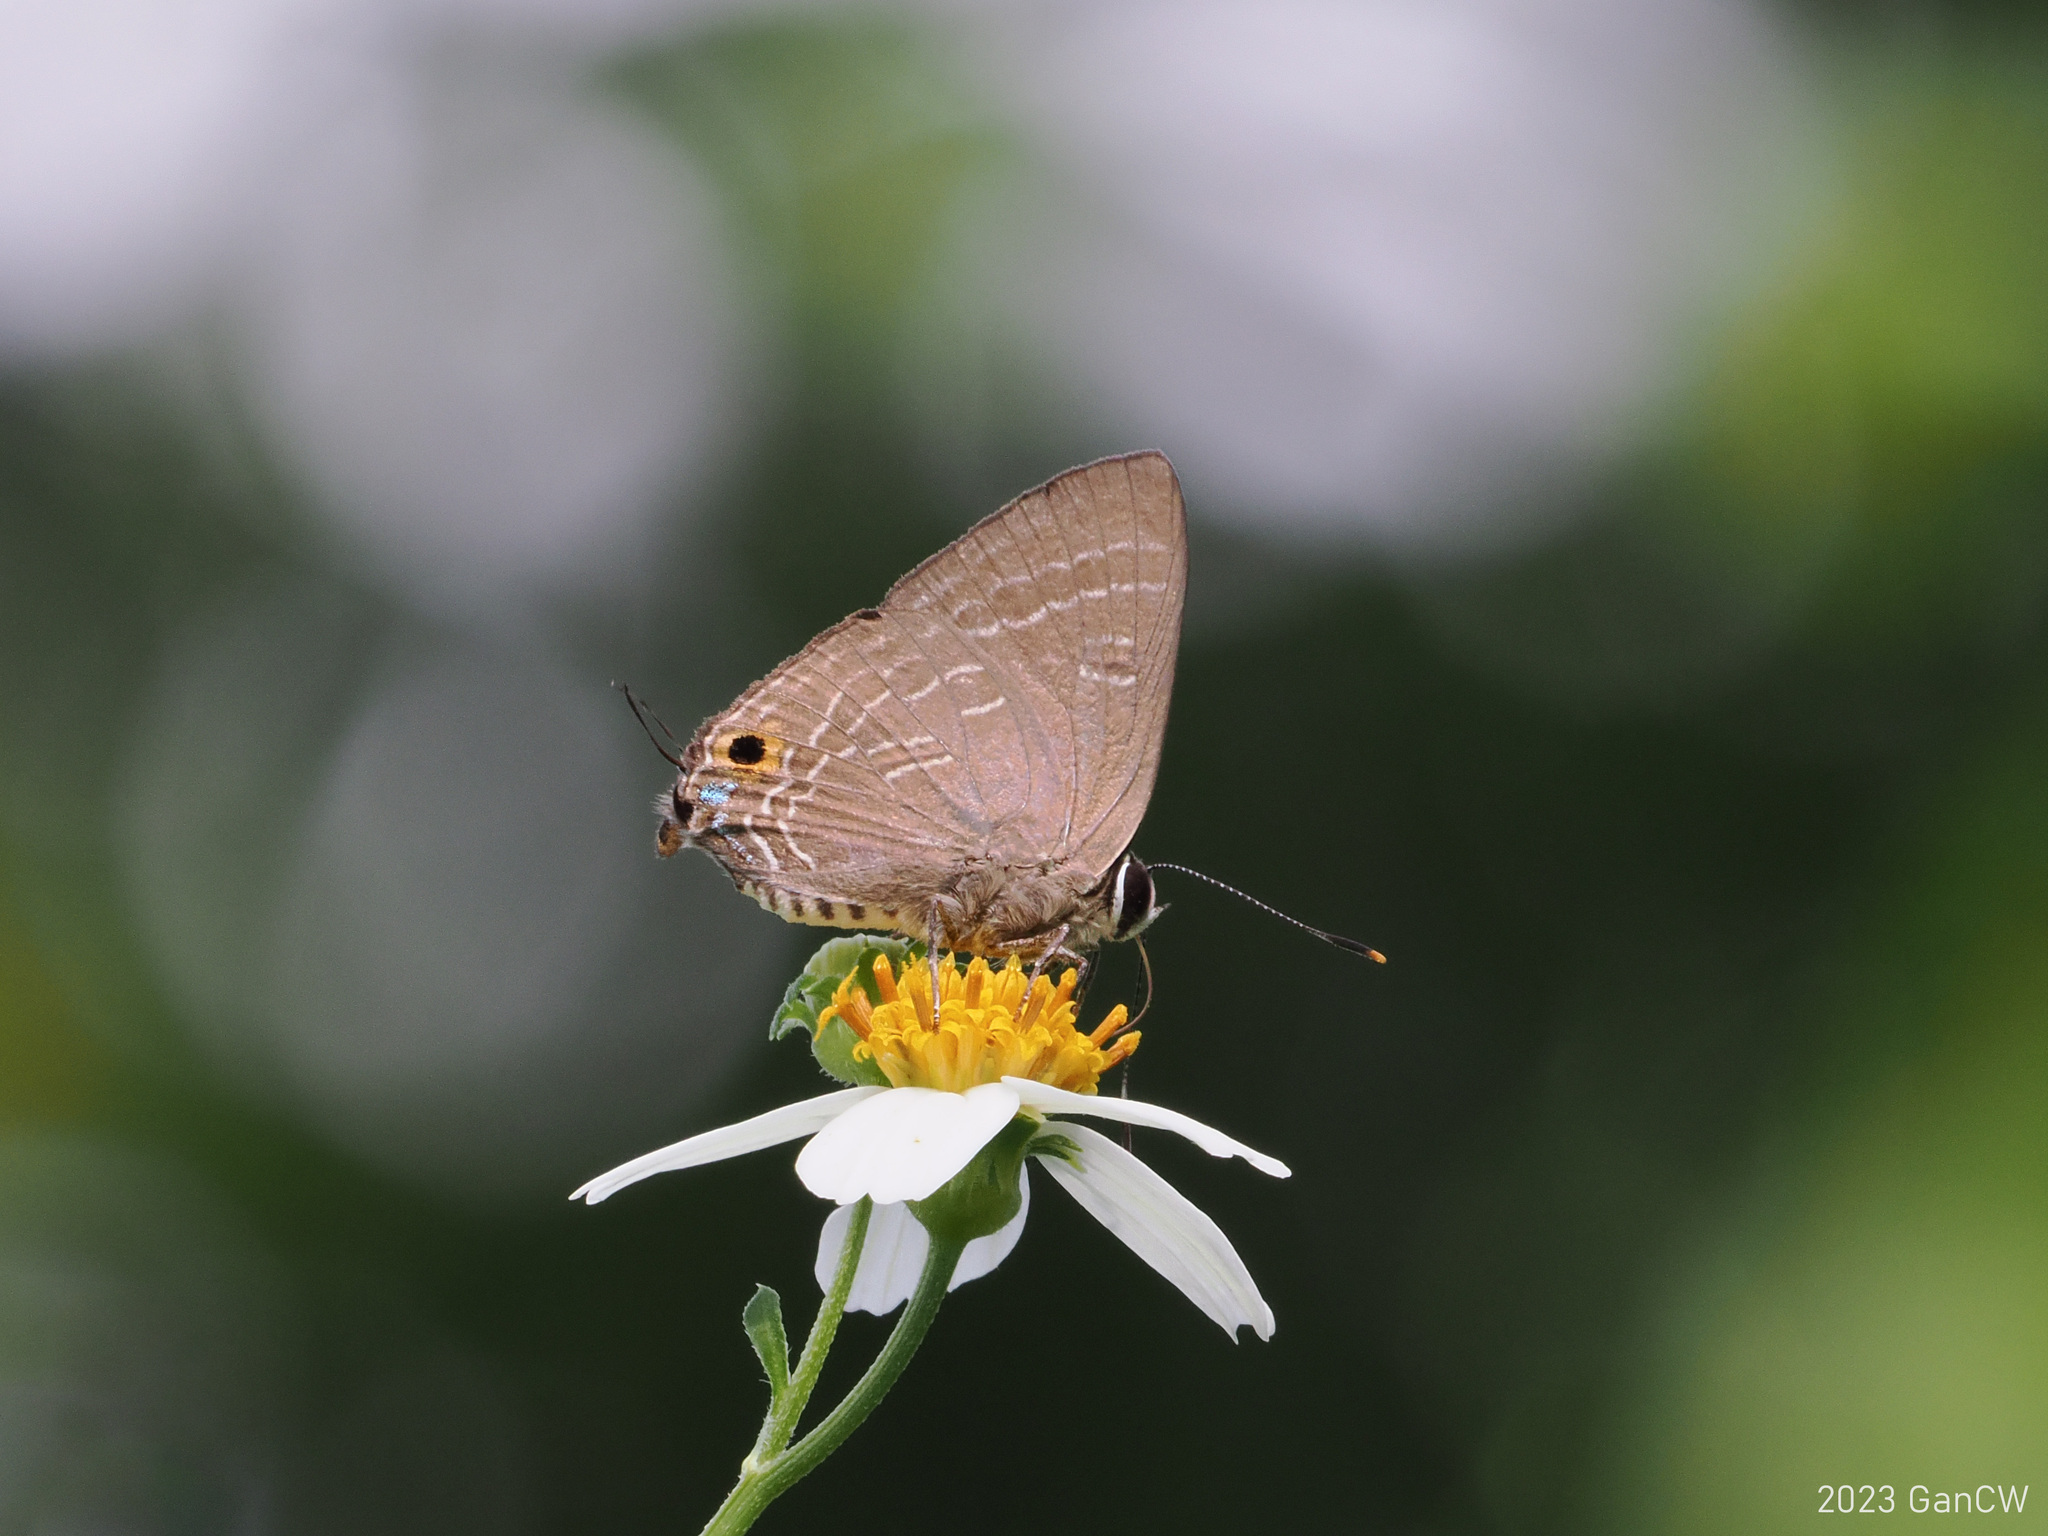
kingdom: Animalia
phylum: Arthropoda
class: Insecta
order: Lepidoptera
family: Lycaenidae
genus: Deudorix
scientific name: Deudorix epijarbas
